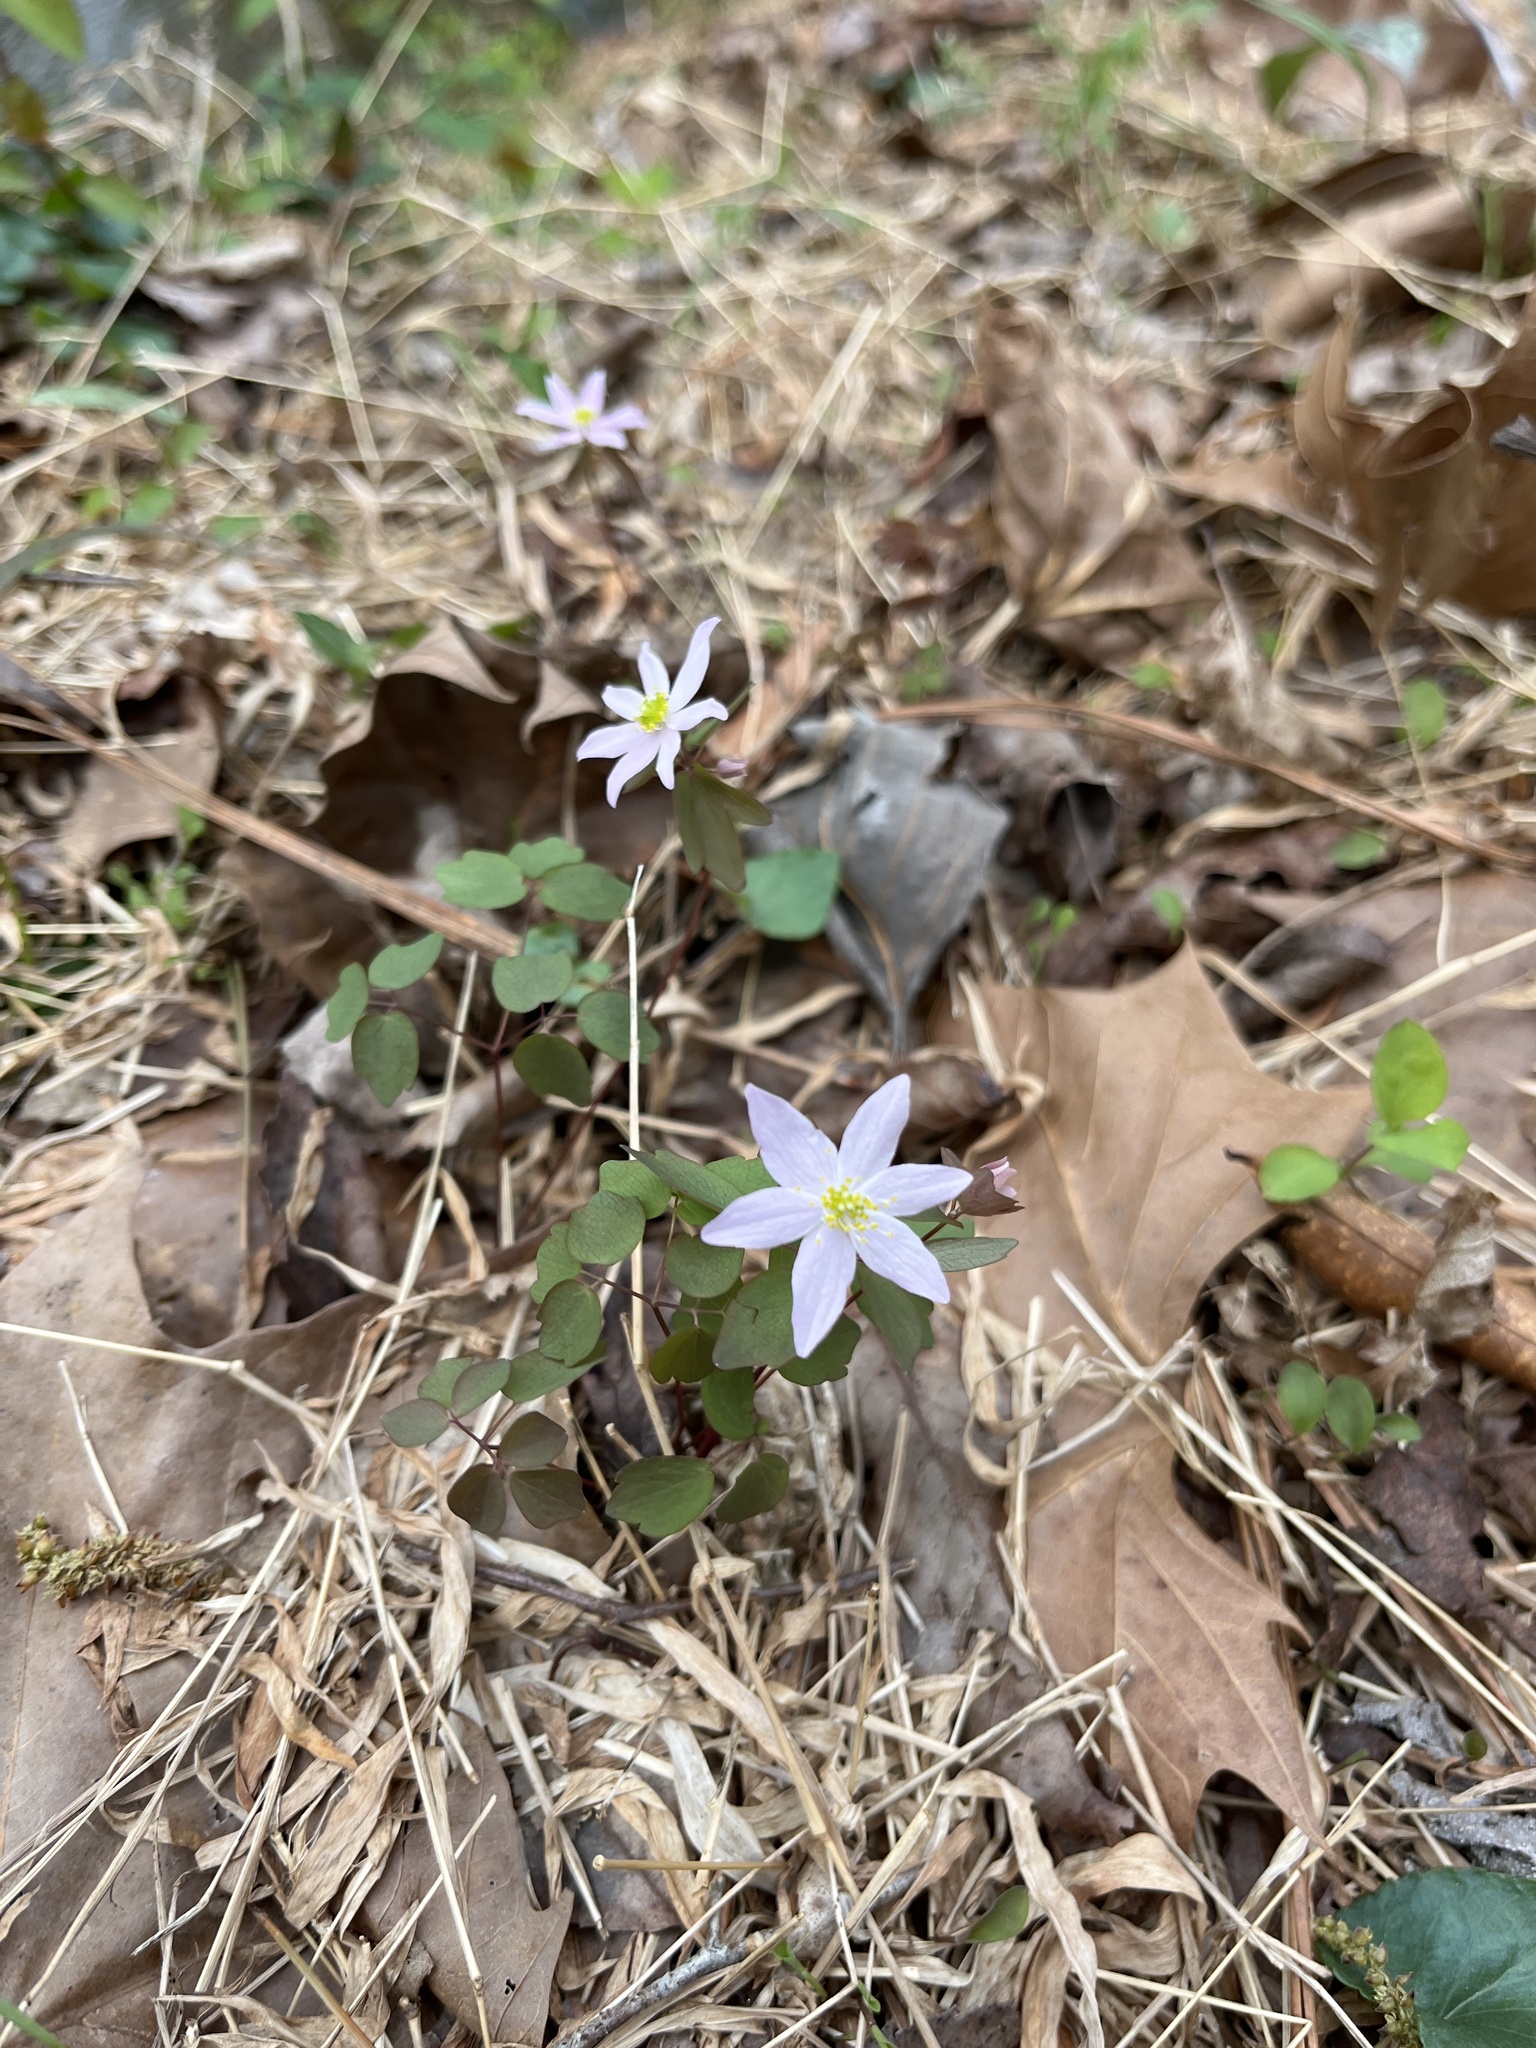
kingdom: Plantae
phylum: Tracheophyta
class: Magnoliopsida
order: Ranunculales
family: Ranunculaceae
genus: Thalictrum
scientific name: Thalictrum thalictroides
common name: Rue-anemone
